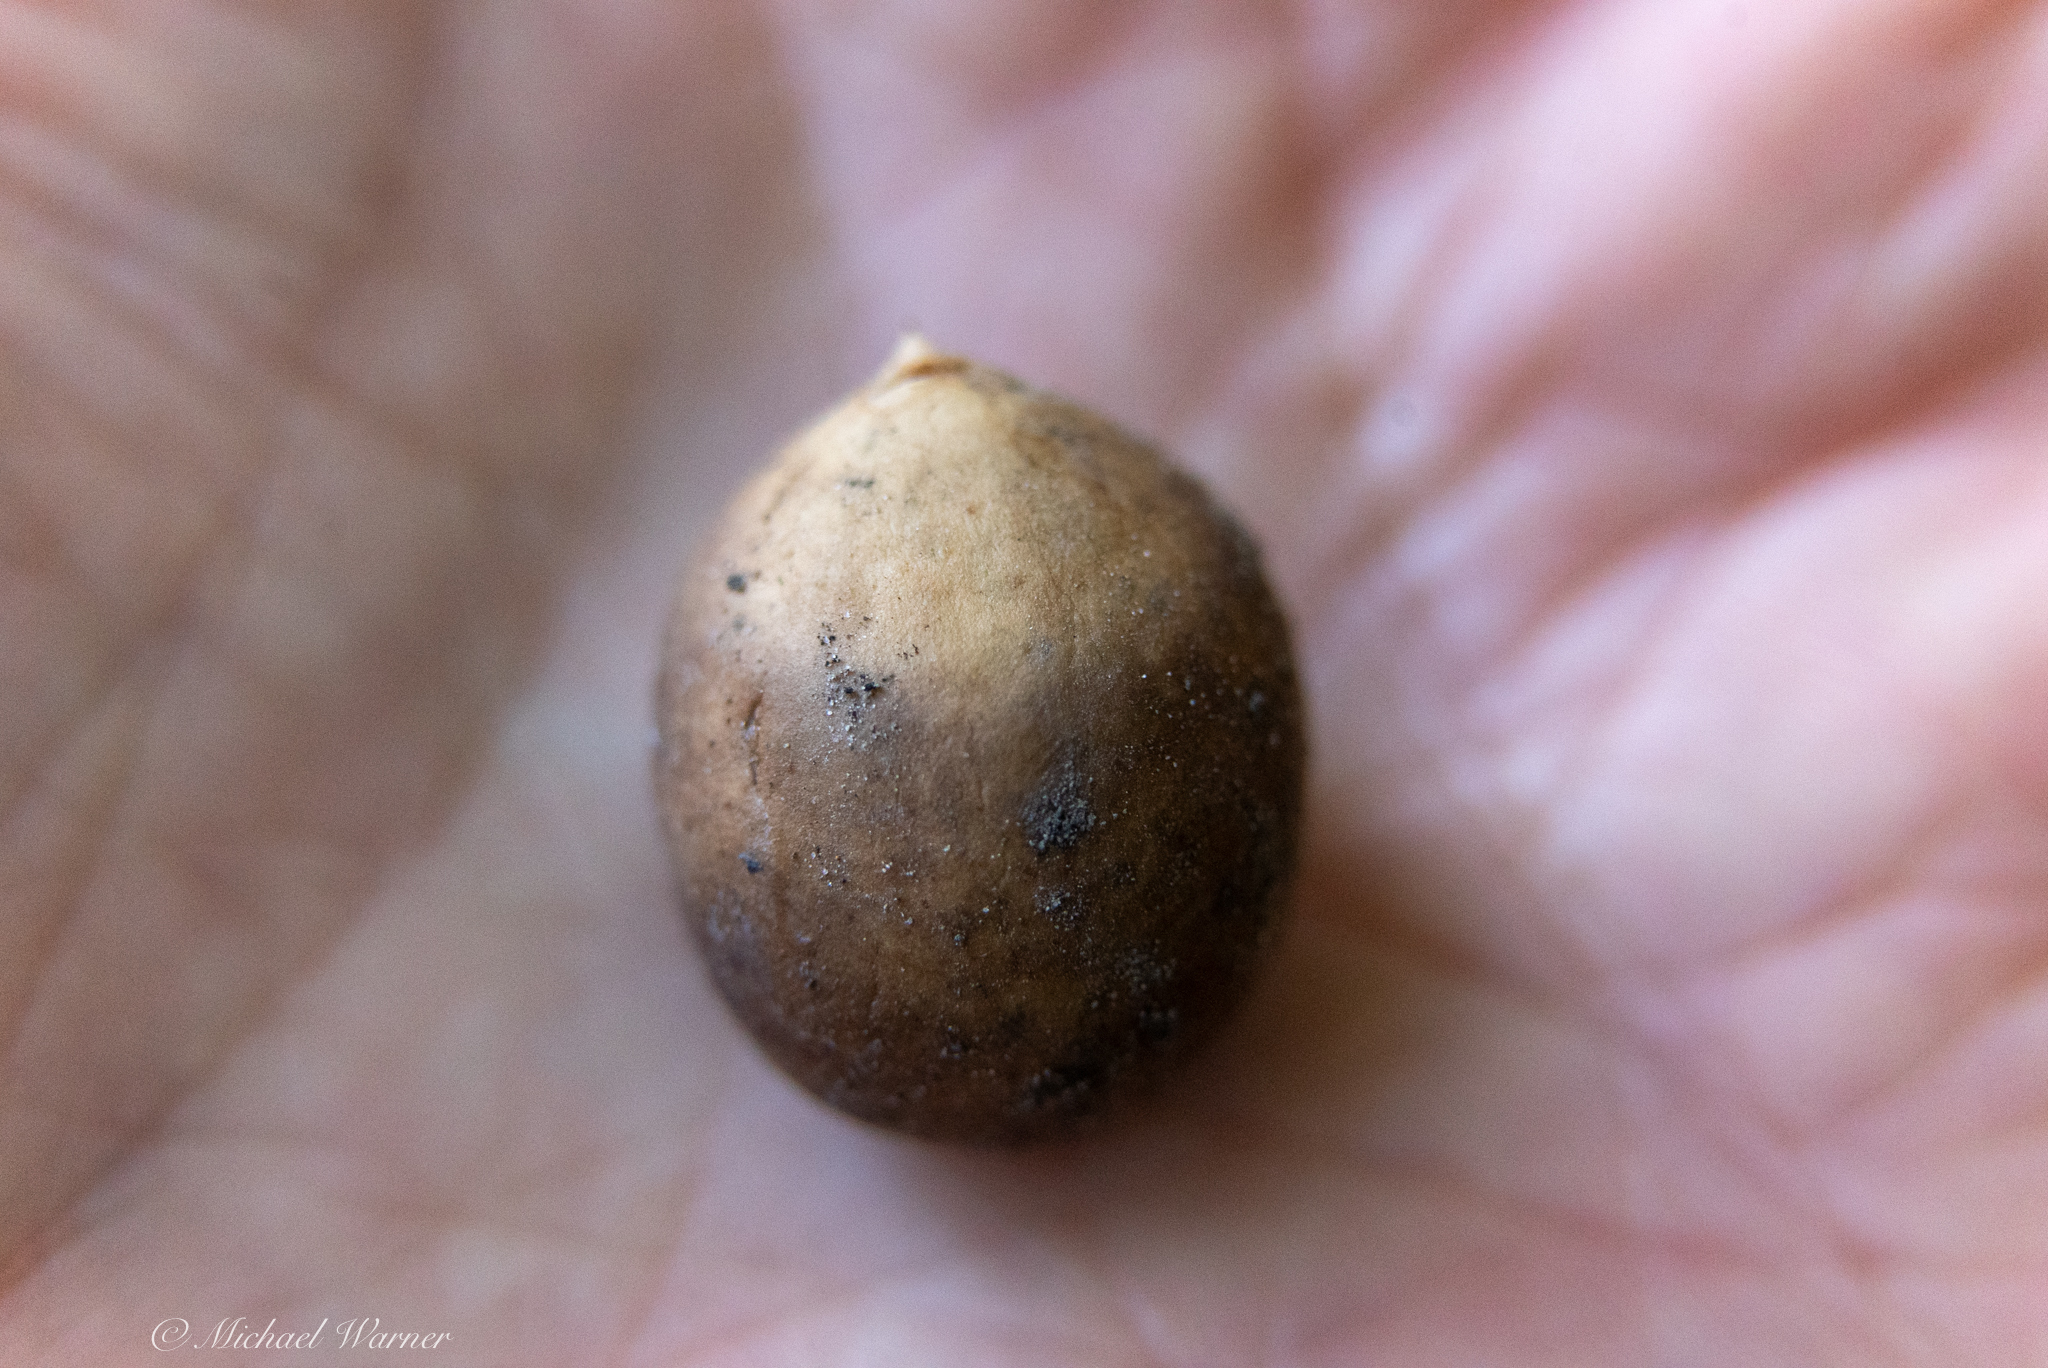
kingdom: Plantae
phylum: Tracheophyta
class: Magnoliopsida
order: Laurales
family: Lauraceae
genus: Umbellularia
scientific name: Umbellularia californica
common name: California bay
